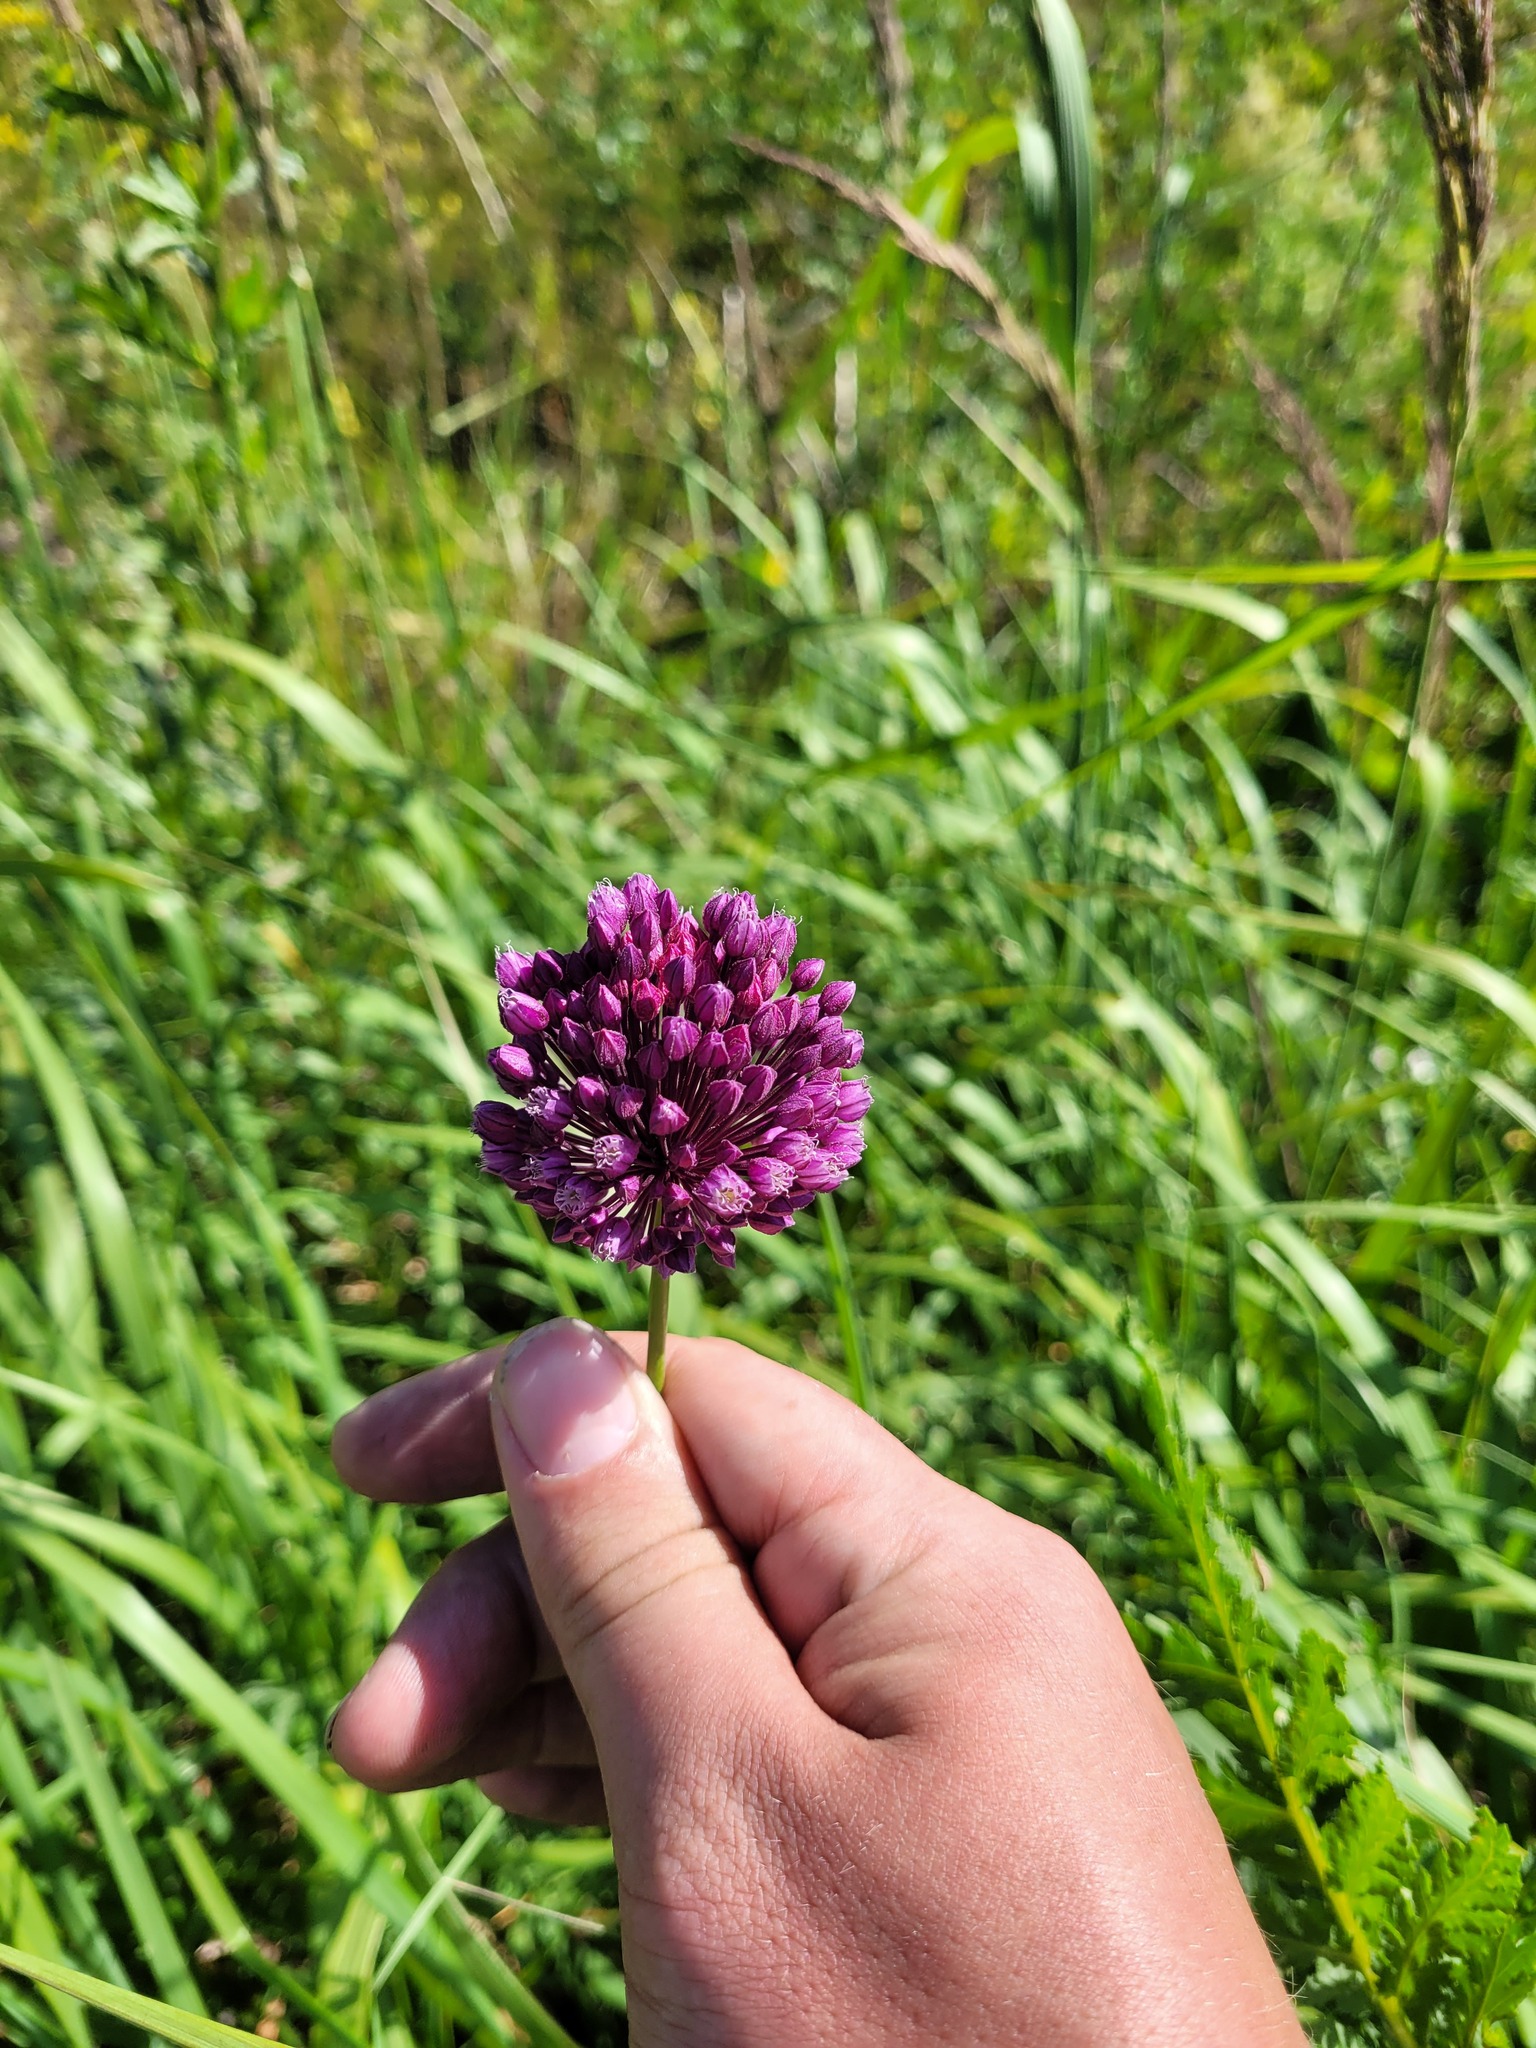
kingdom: Plantae
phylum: Tracheophyta
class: Liliopsida
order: Asparagales
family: Amaryllidaceae
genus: Allium
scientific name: Allium rotundum
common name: Sand leek
